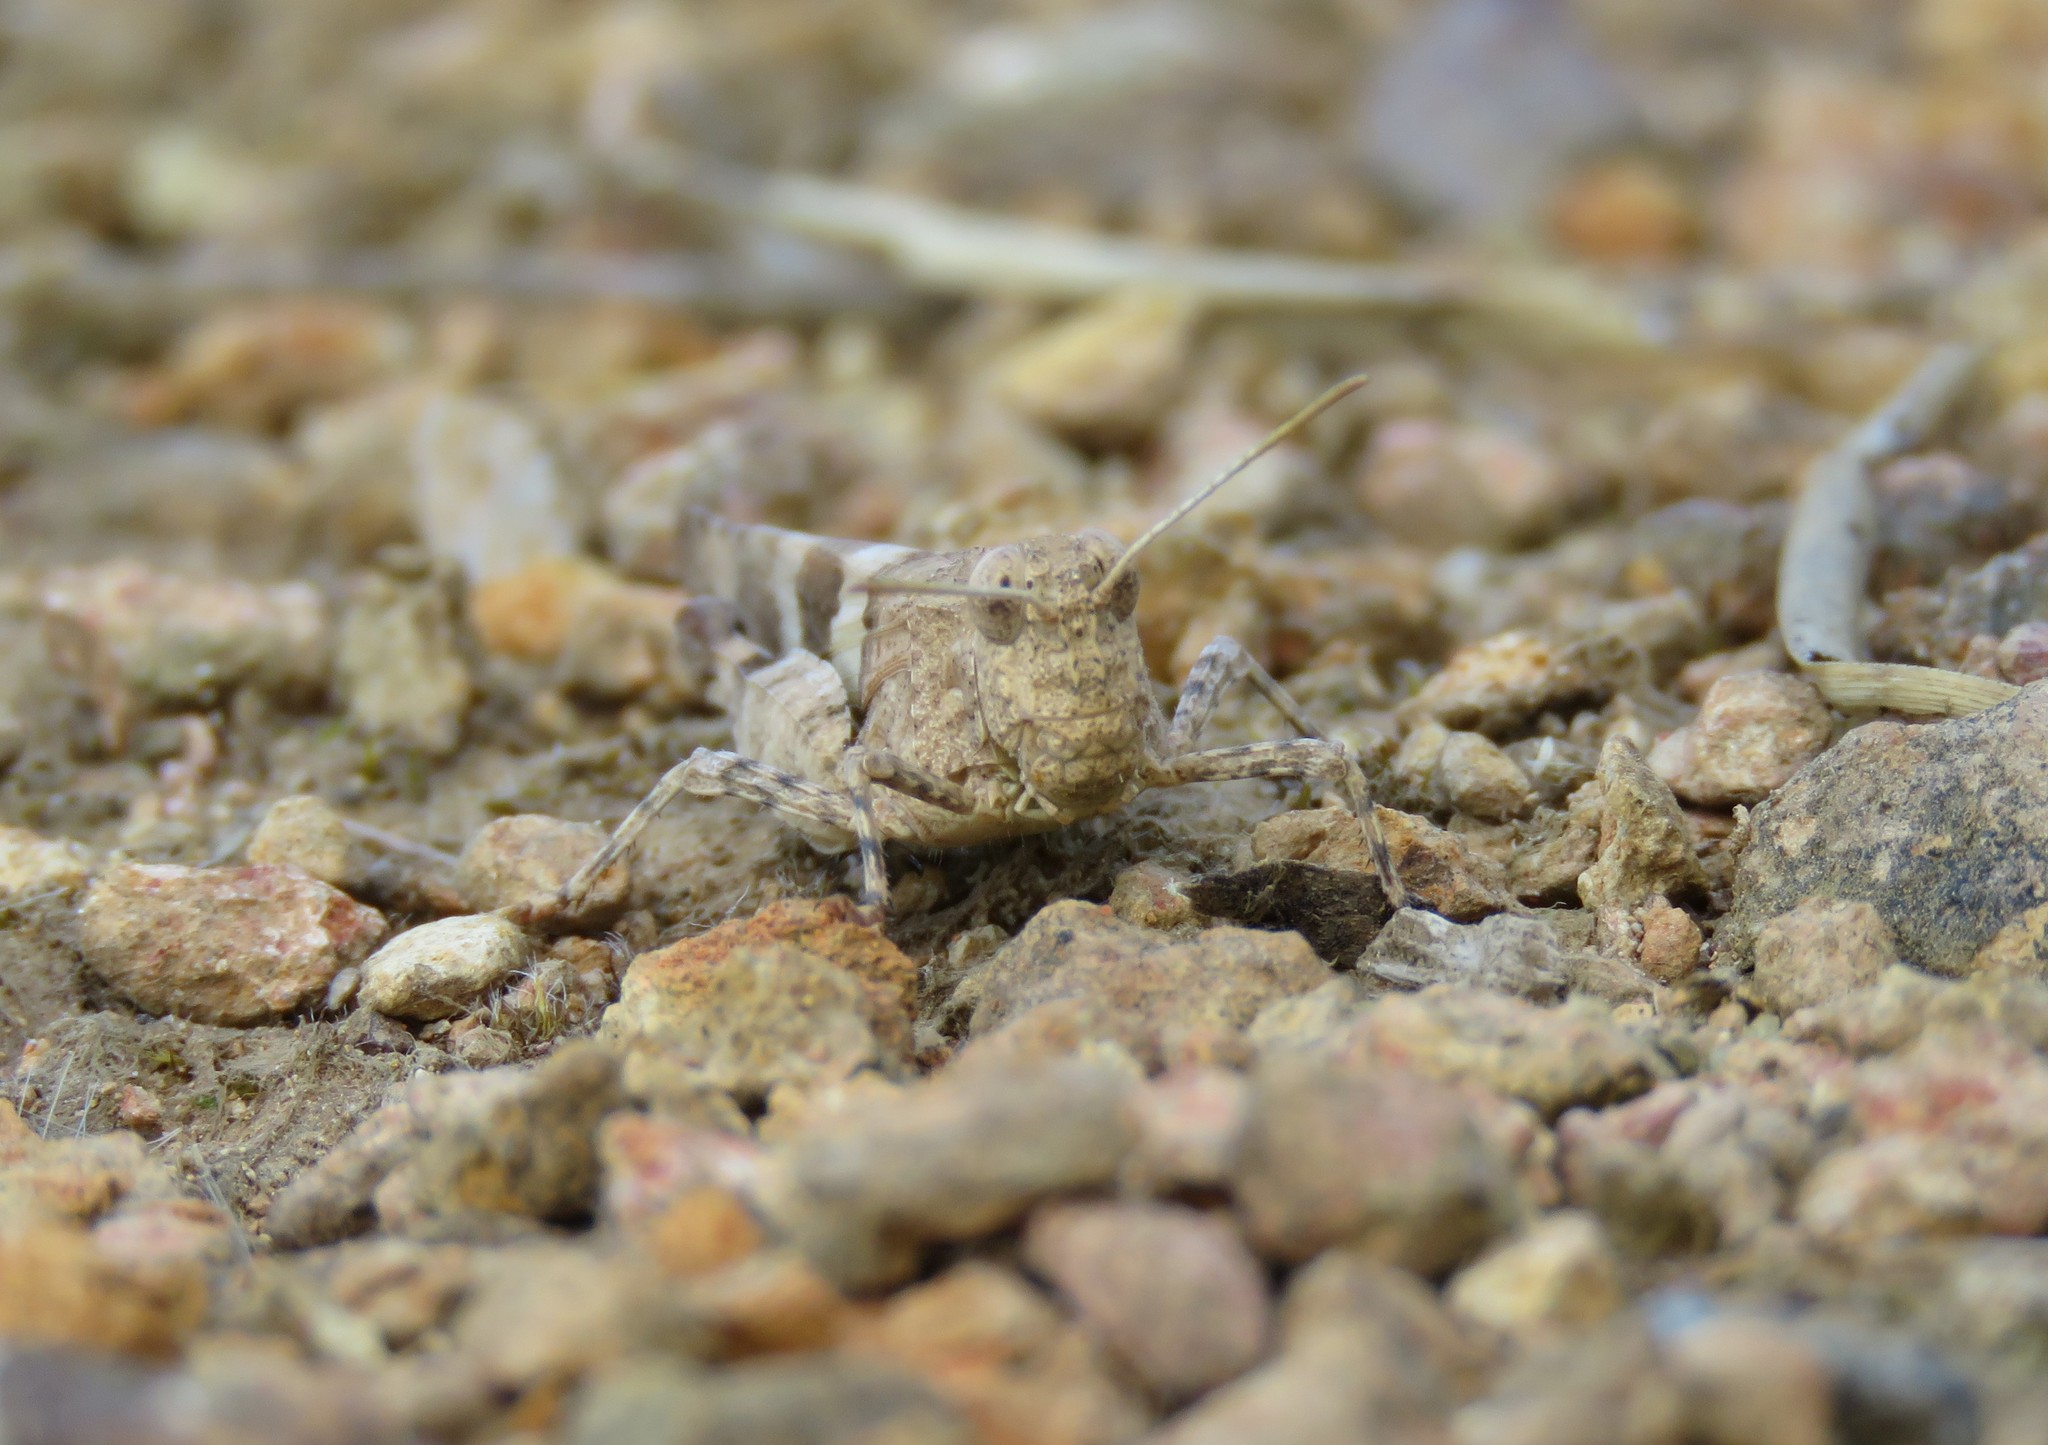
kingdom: Animalia
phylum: Arthropoda
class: Insecta
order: Orthoptera
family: Acrididae
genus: Oedipoda
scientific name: Oedipoda caerulescens
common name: Blue-winged grasshopper
